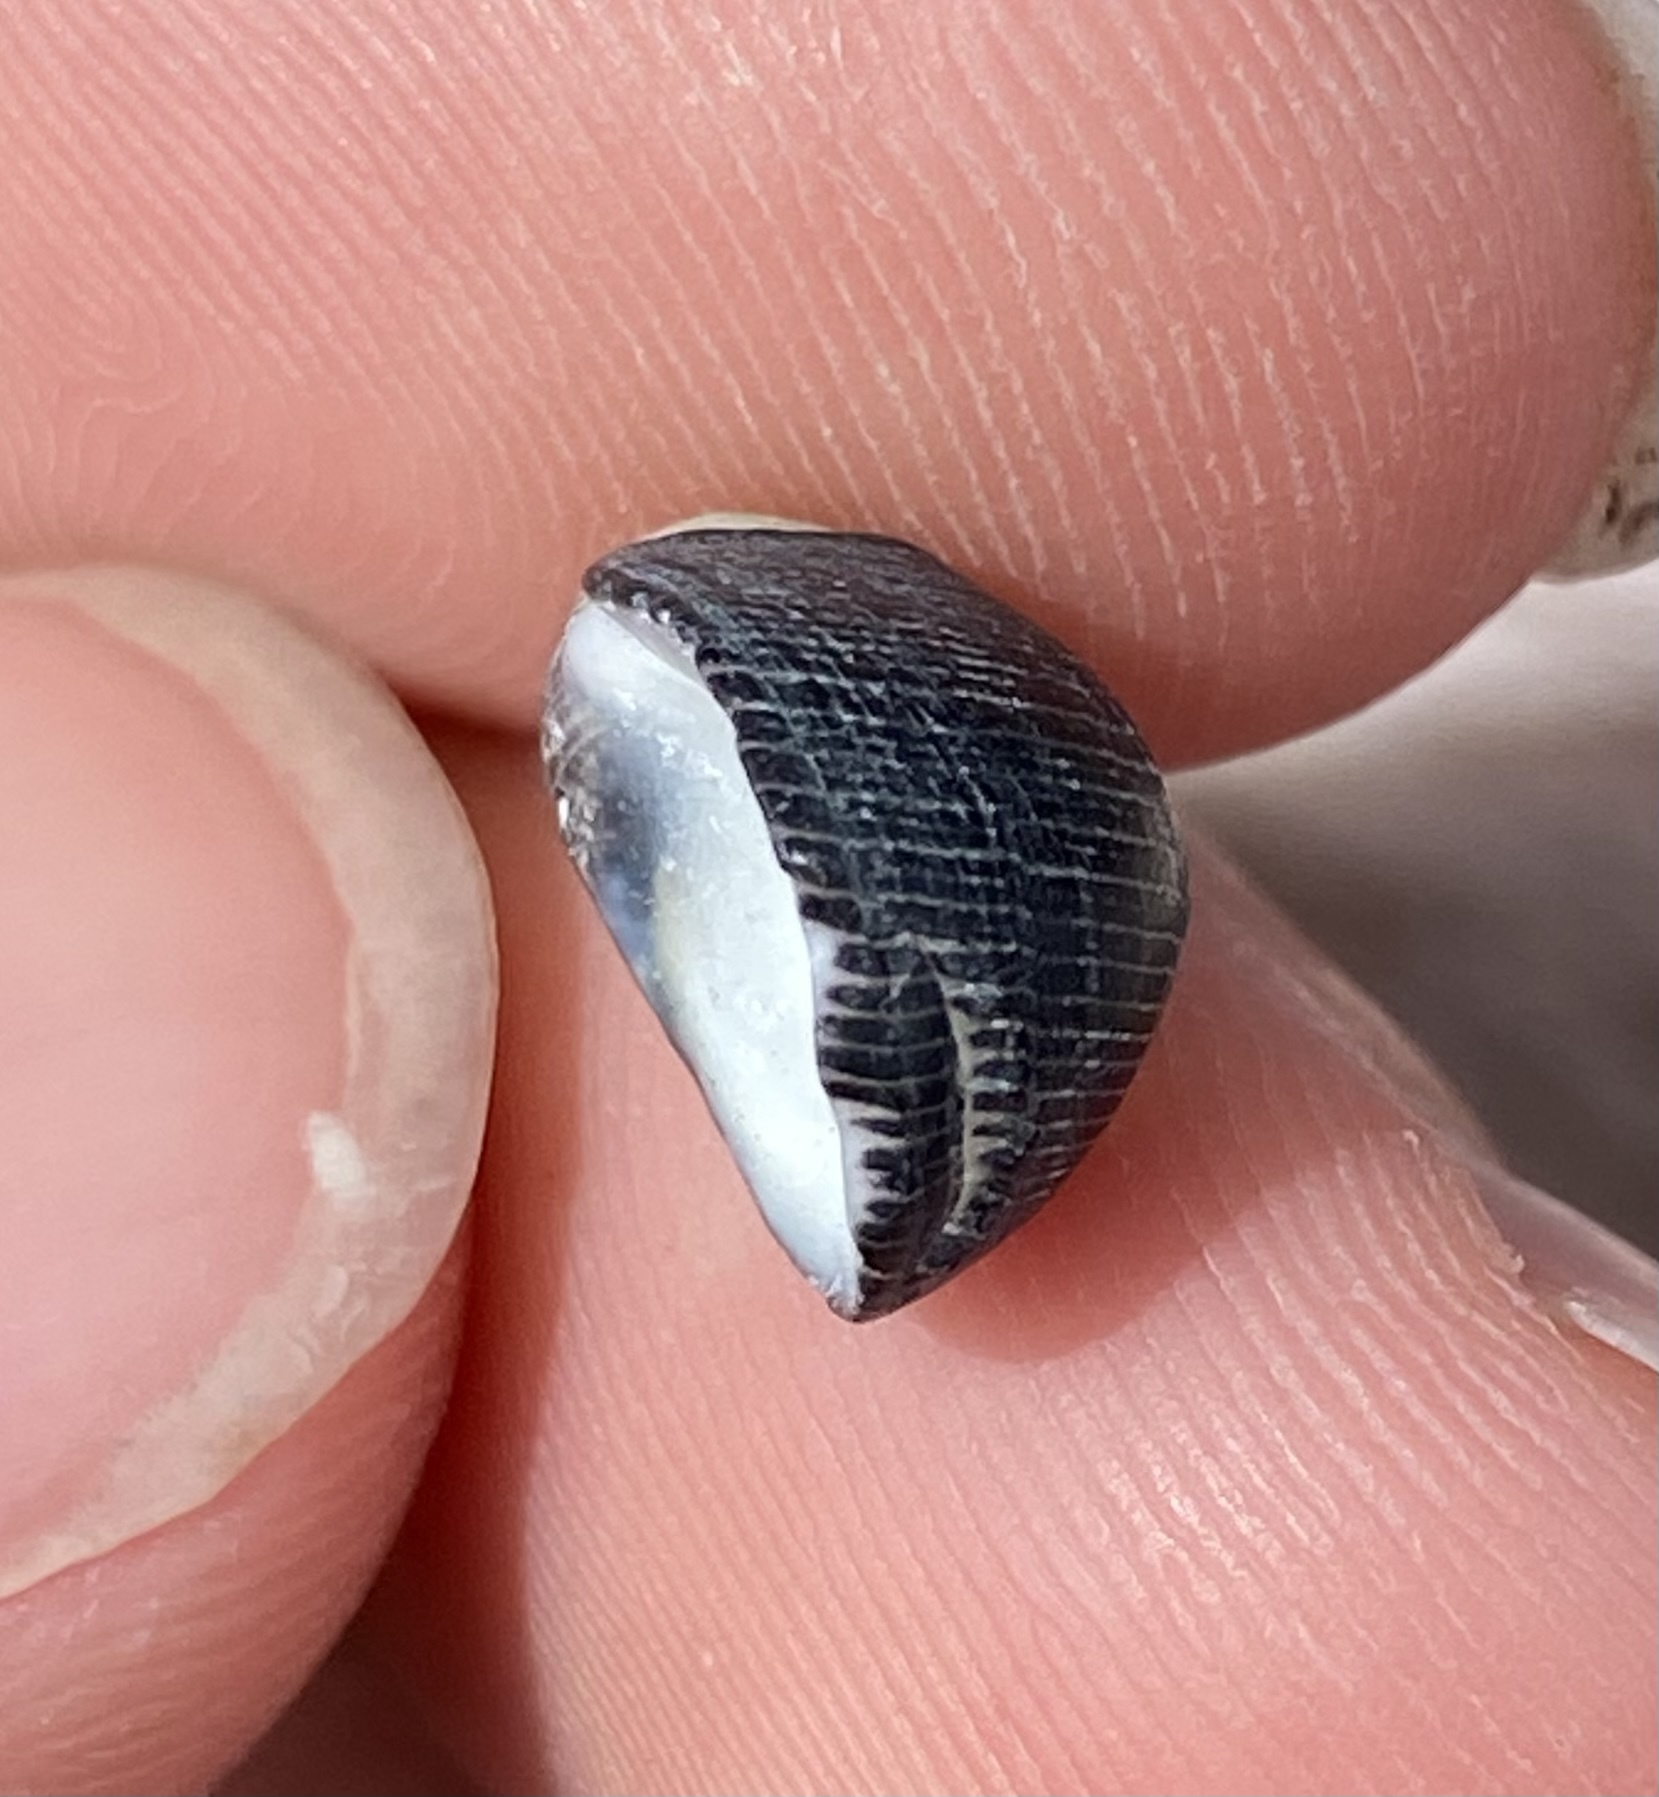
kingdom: Animalia
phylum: Mollusca
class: Gastropoda
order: Cycloneritida
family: Neritidae
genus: Nerita
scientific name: Nerita picea
